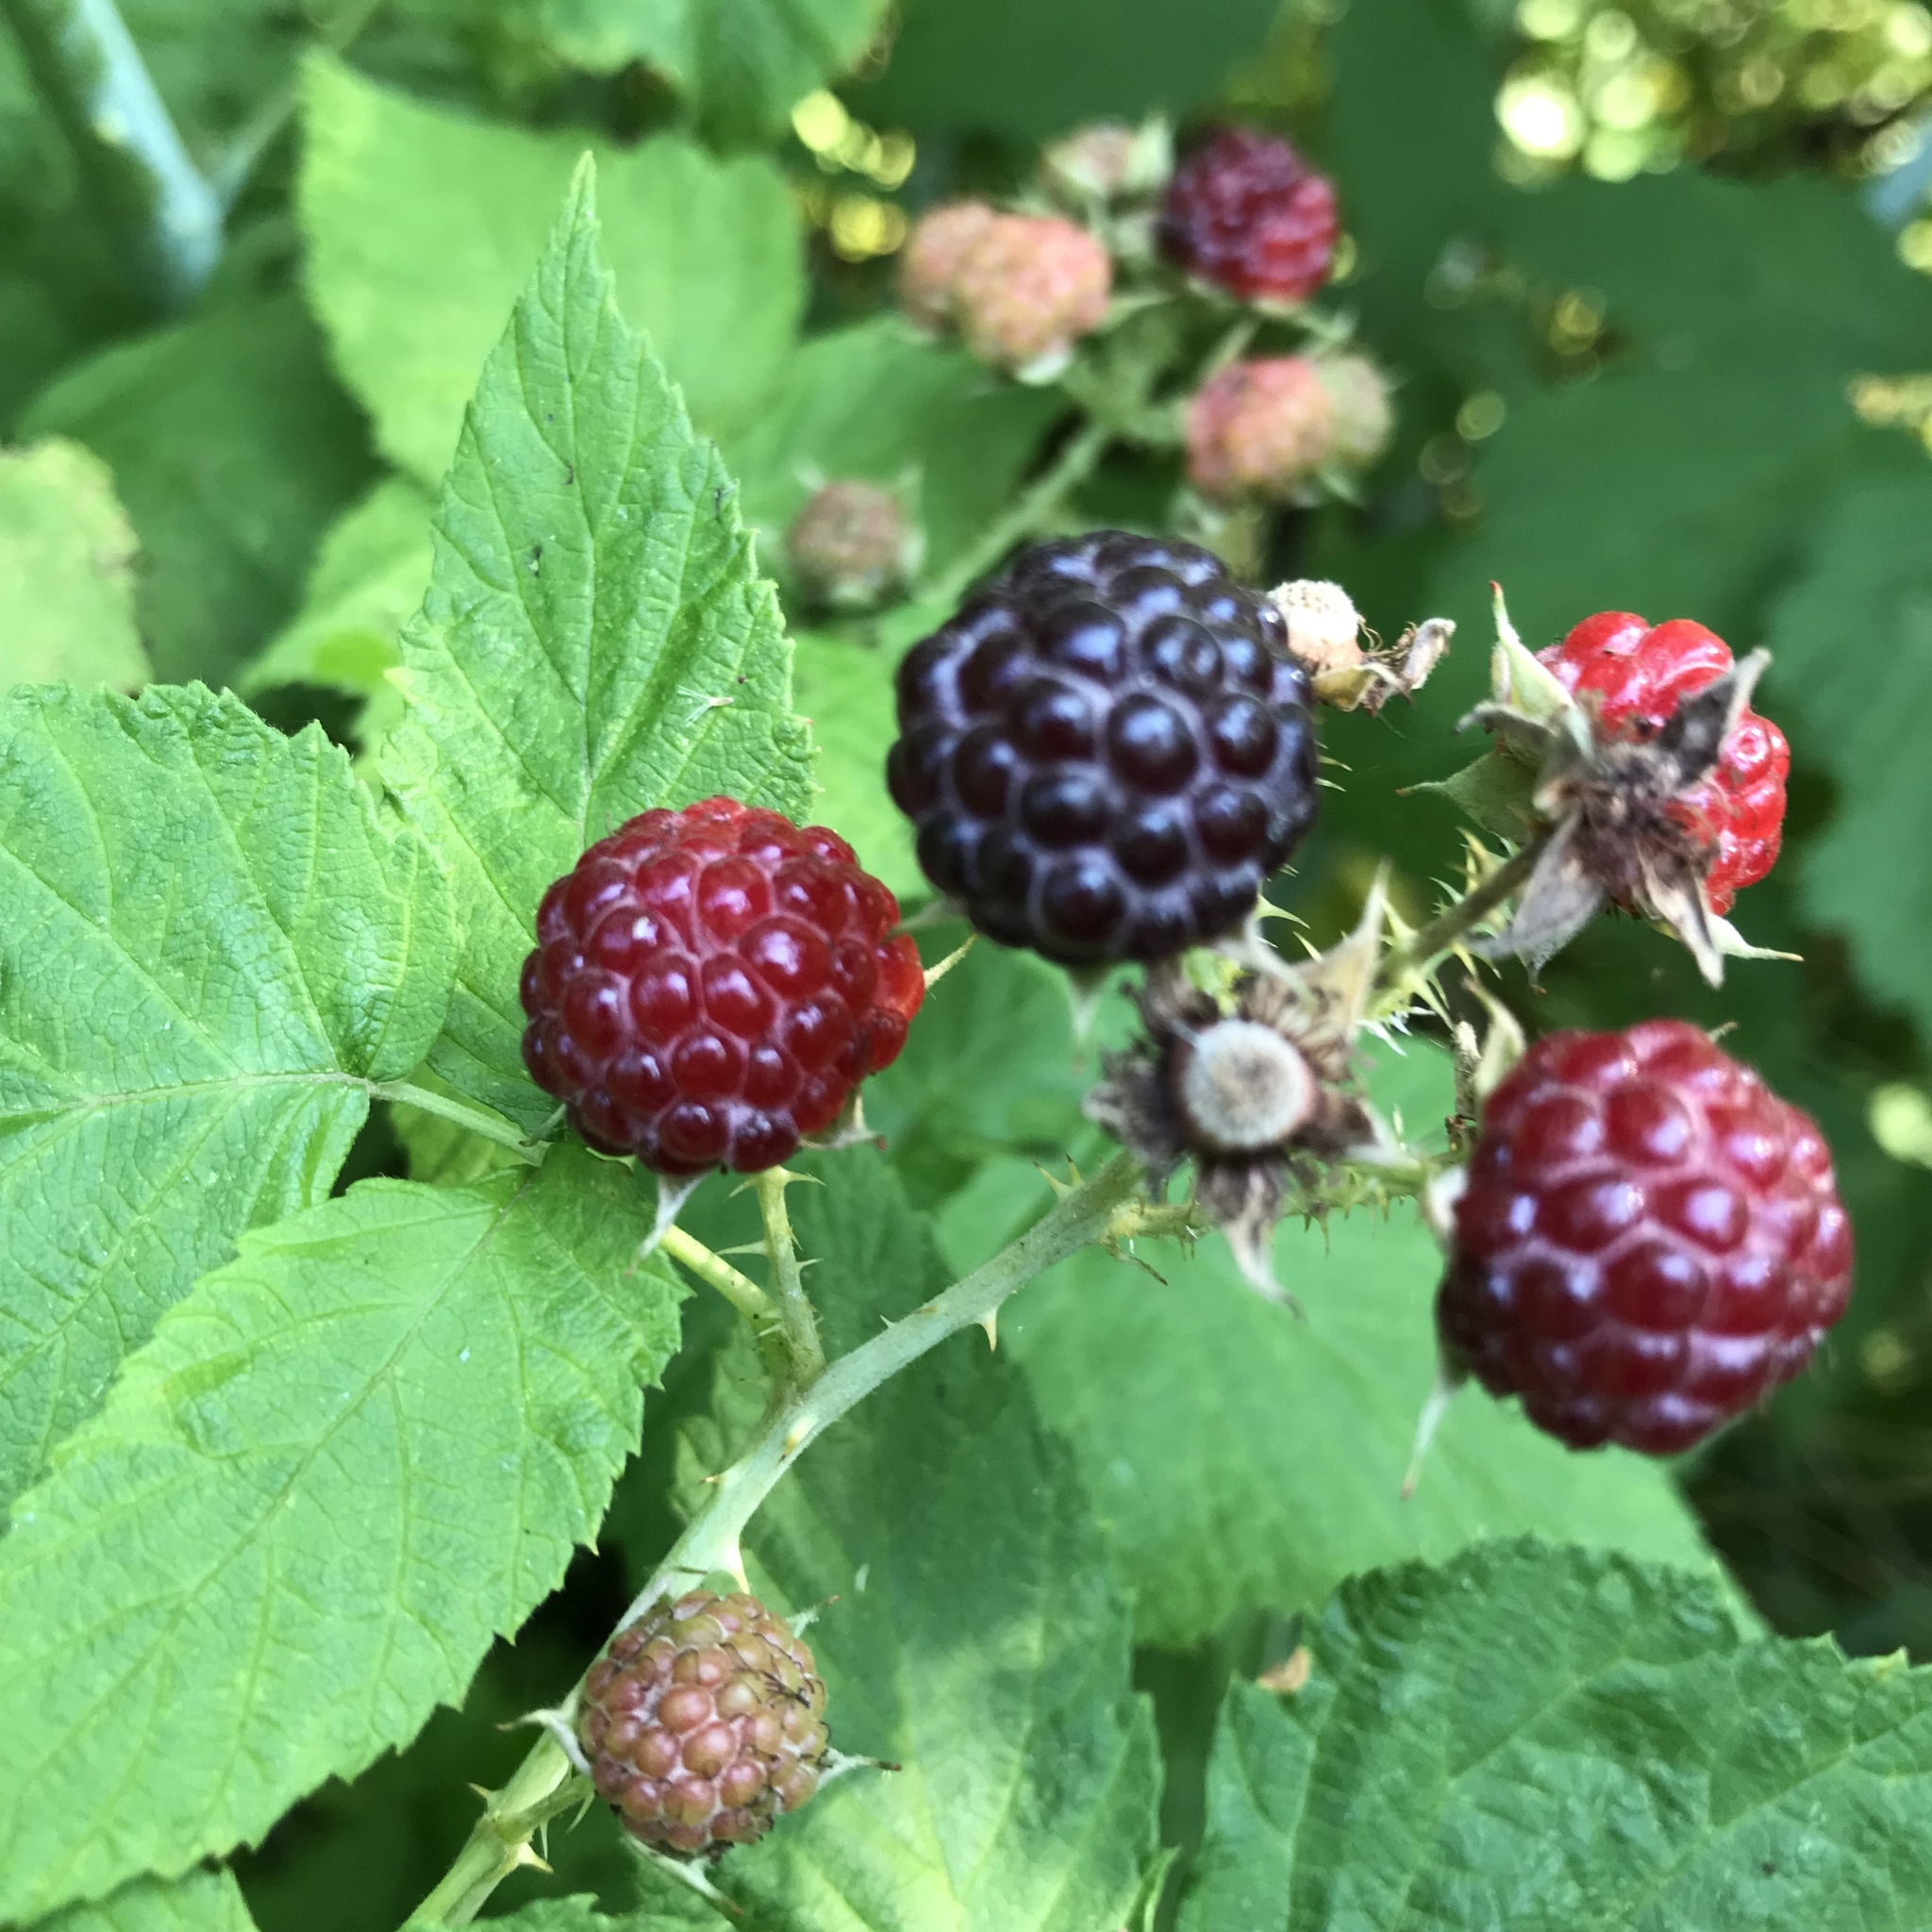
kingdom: Plantae
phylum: Tracheophyta
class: Magnoliopsida
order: Rosales
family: Rosaceae
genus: Rubus
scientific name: Rubus occidentalis
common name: Black raspberry
